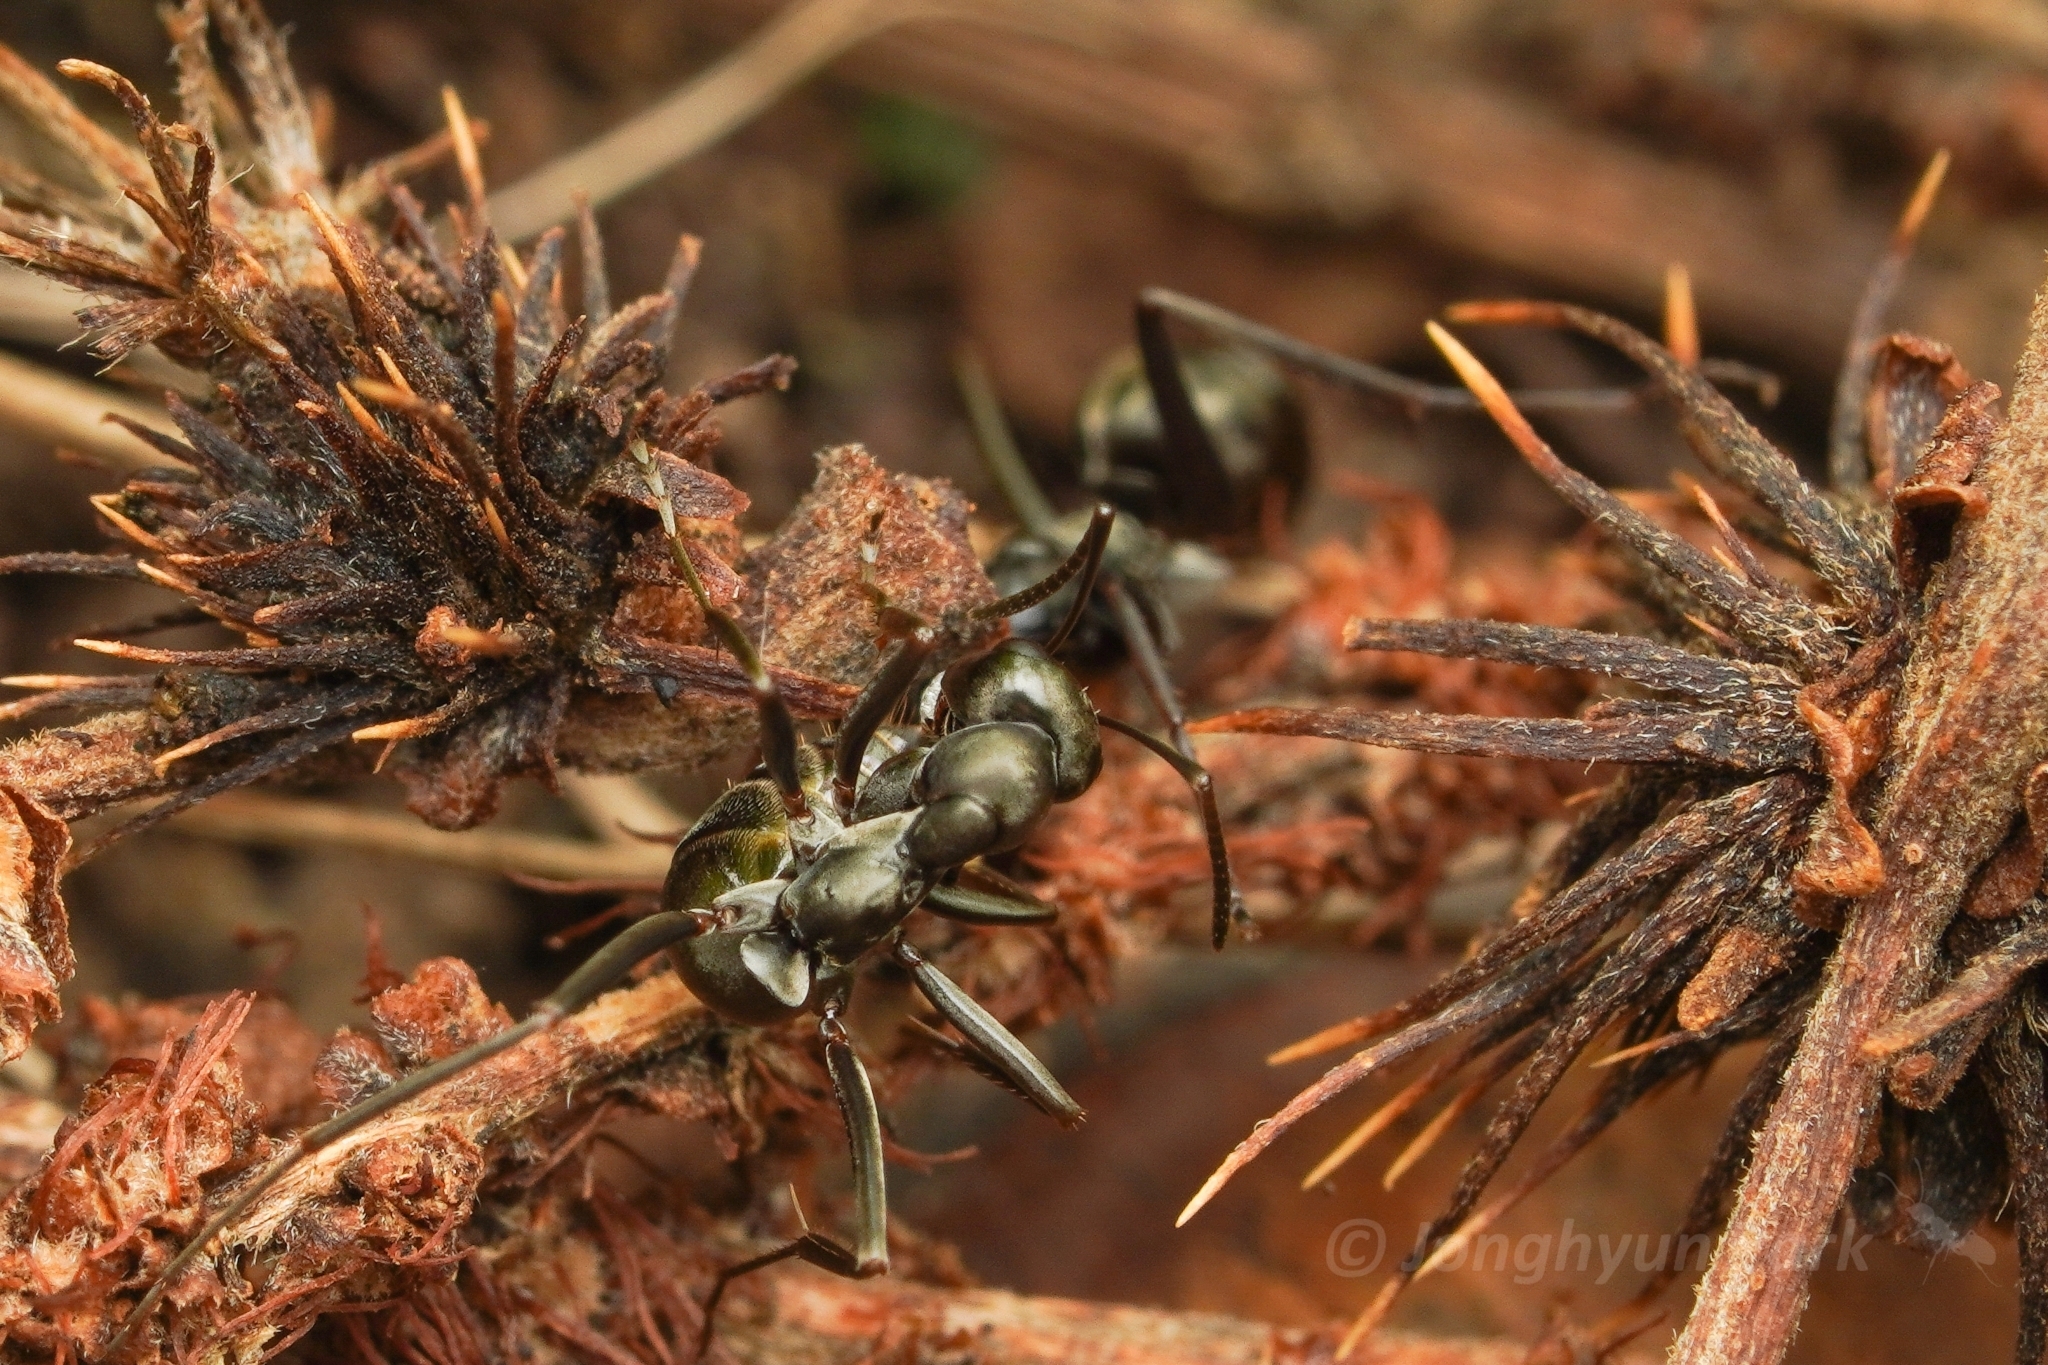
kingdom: Animalia
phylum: Arthropoda
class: Insecta
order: Hymenoptera
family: Formicidae
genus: Formica
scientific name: Formica hayashi
